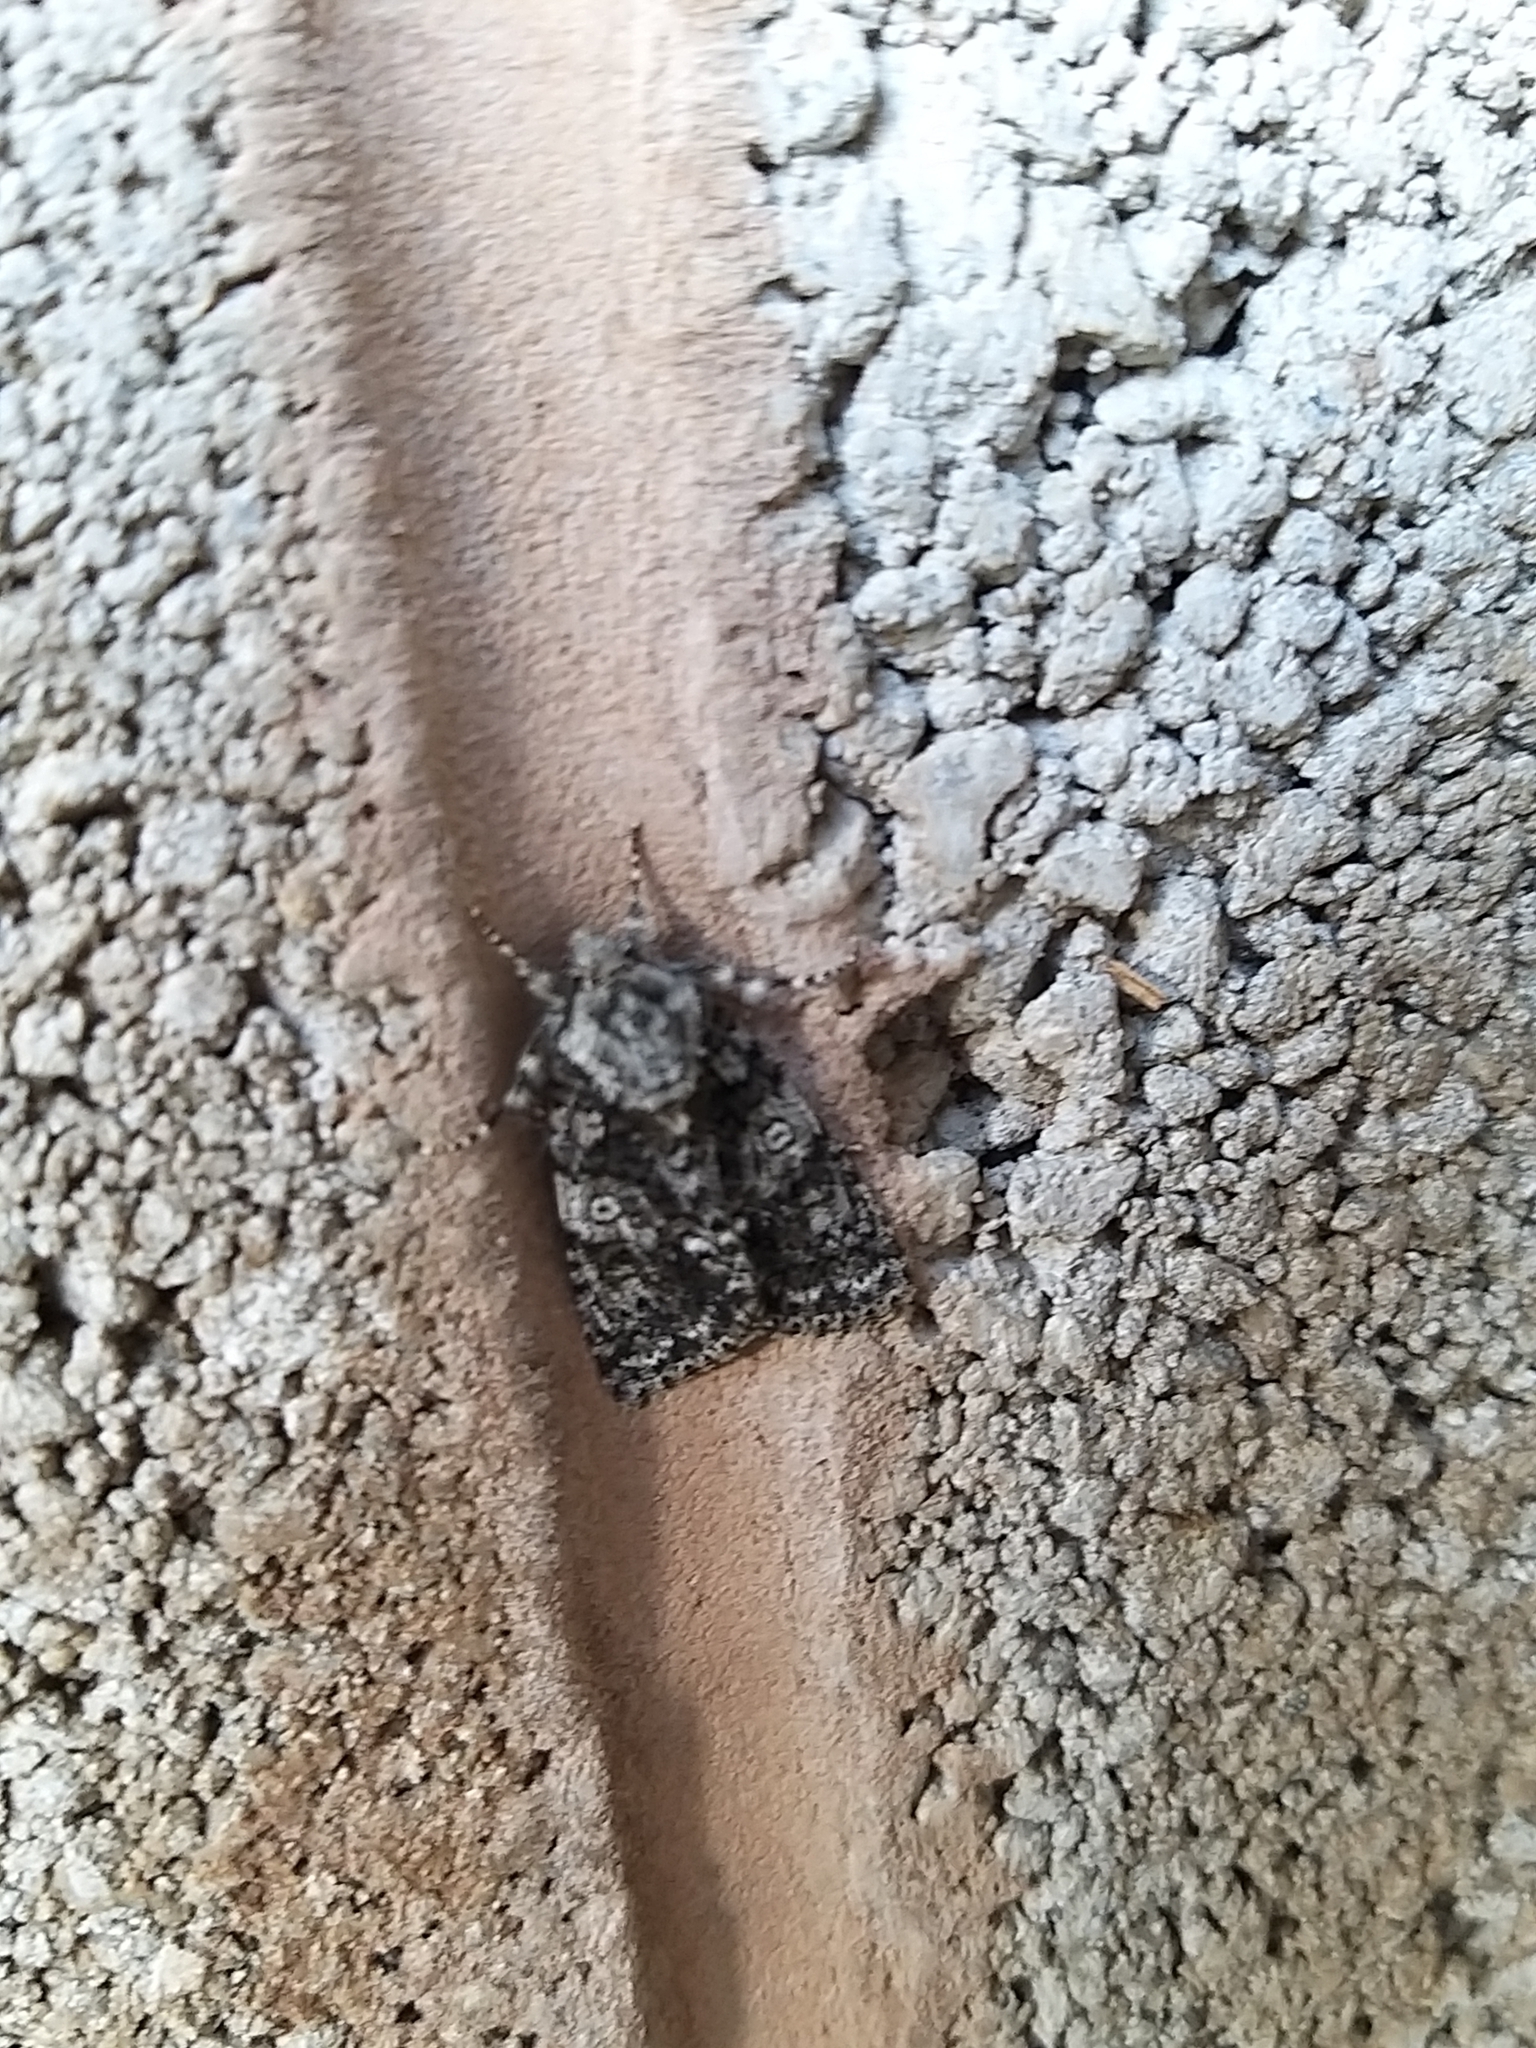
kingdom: Animalia
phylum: Arthropoda
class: Insecta
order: Lepidoptera
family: Noctuidae
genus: Acronicta
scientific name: Acronicta rumicis
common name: Knot grass
